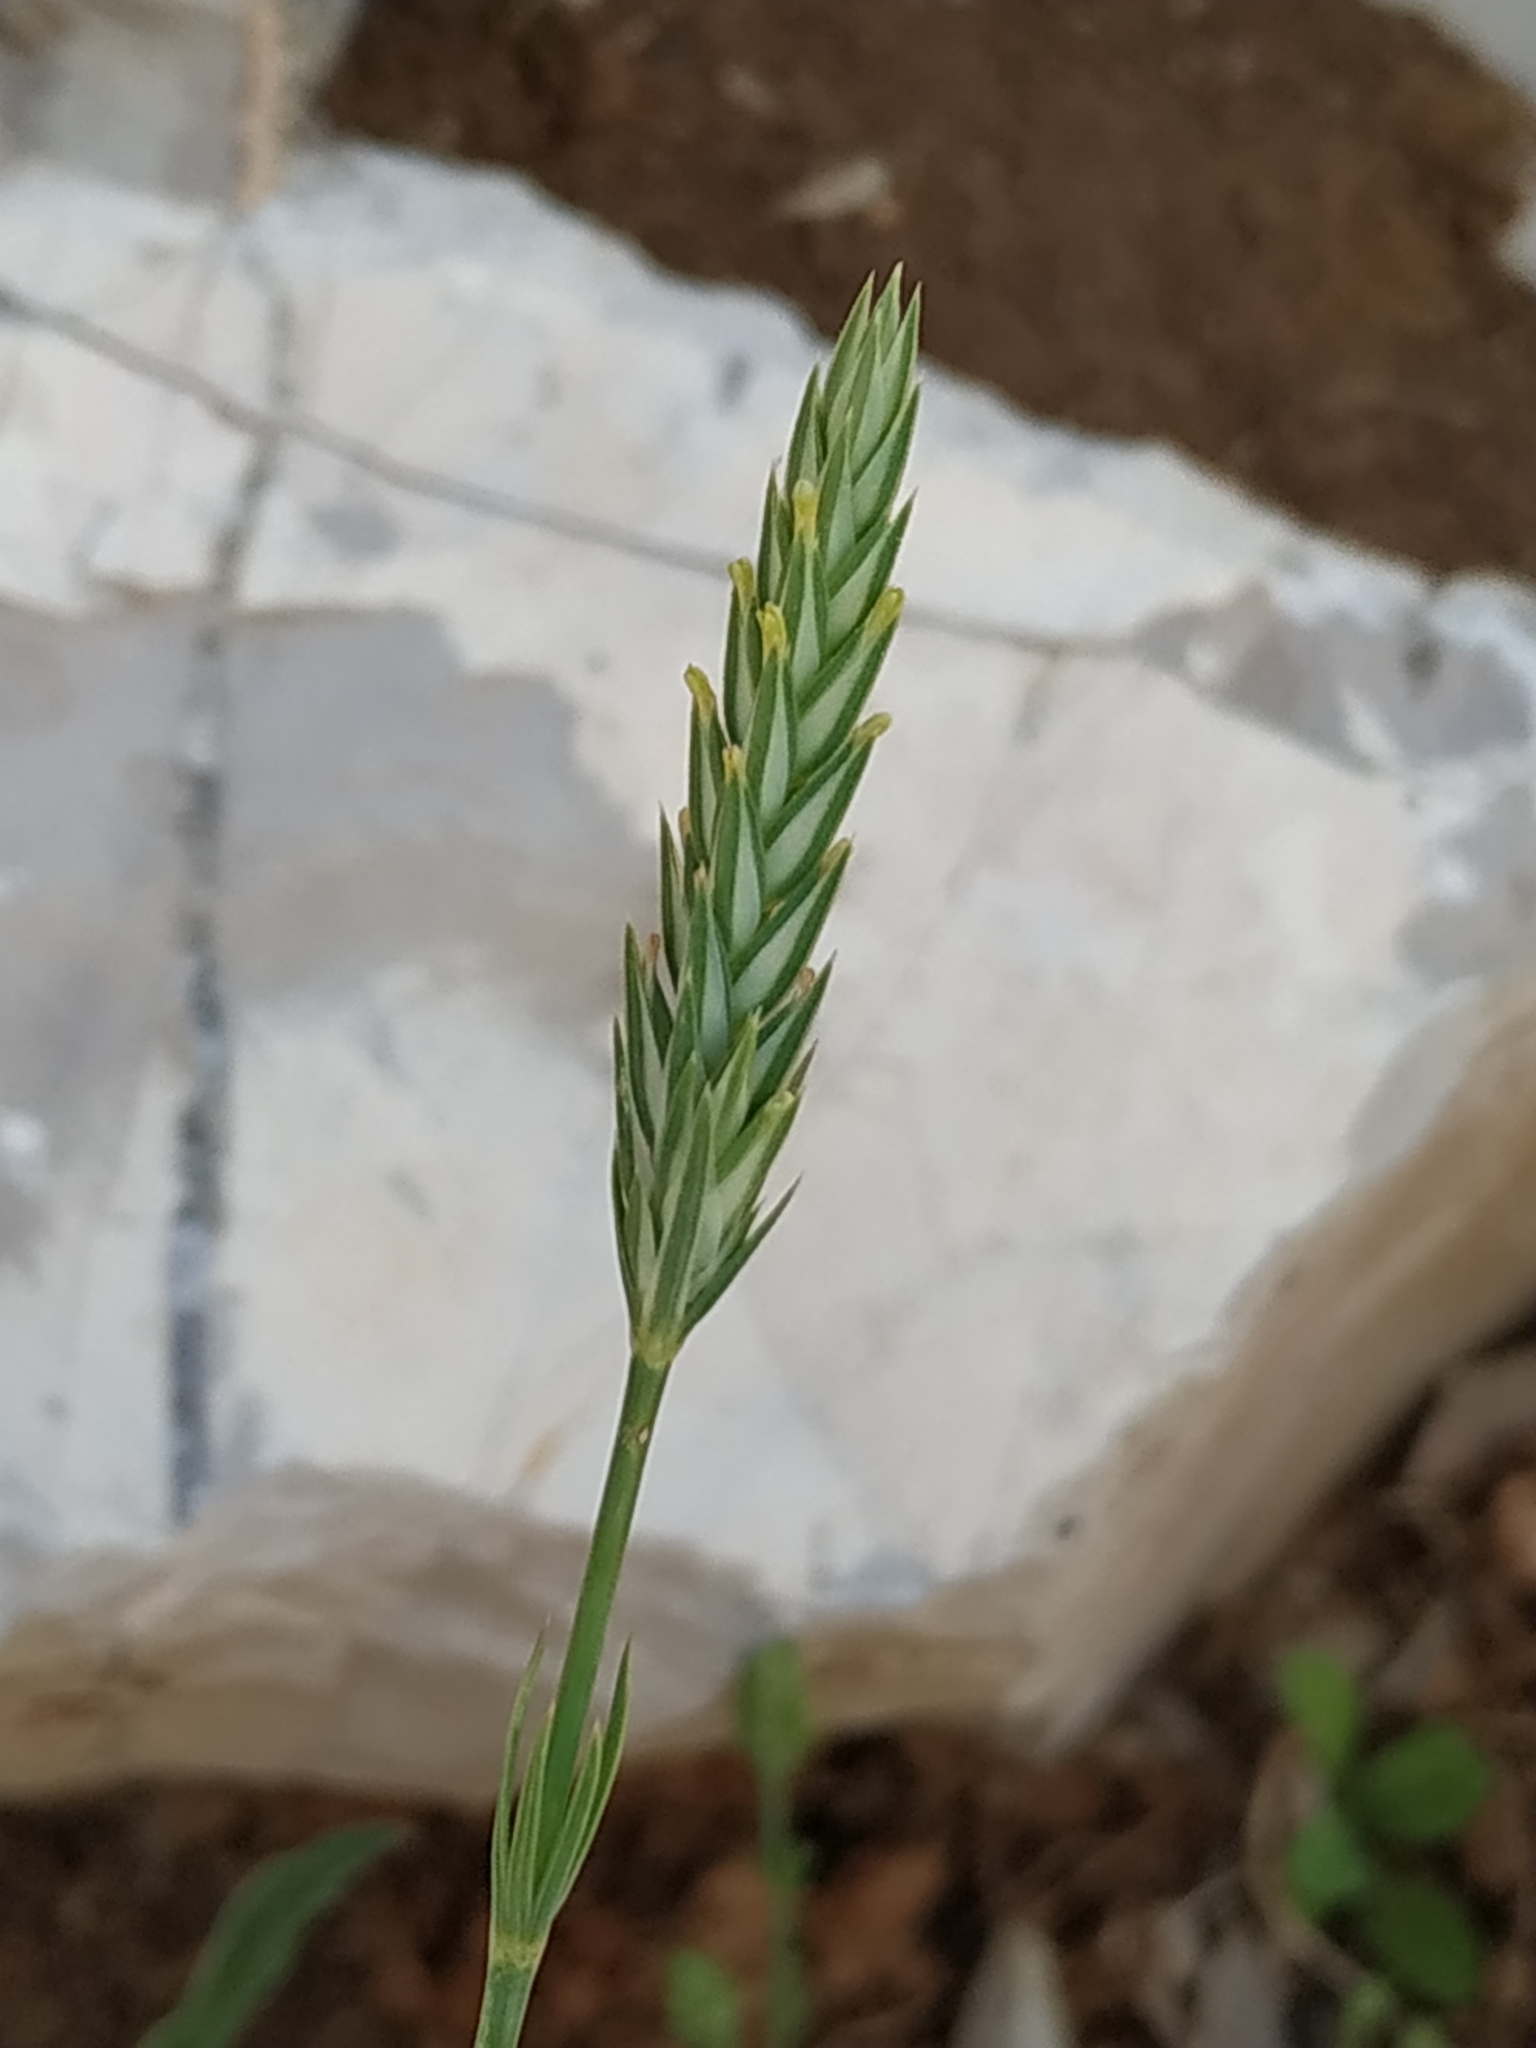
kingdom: Plantae
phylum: Tracheophyta
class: Magnoliopsida
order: Gentianales
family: Rubiaceae
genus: Crucianella
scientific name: Crucianella angustifolia
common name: Narrowleaf crucianella
